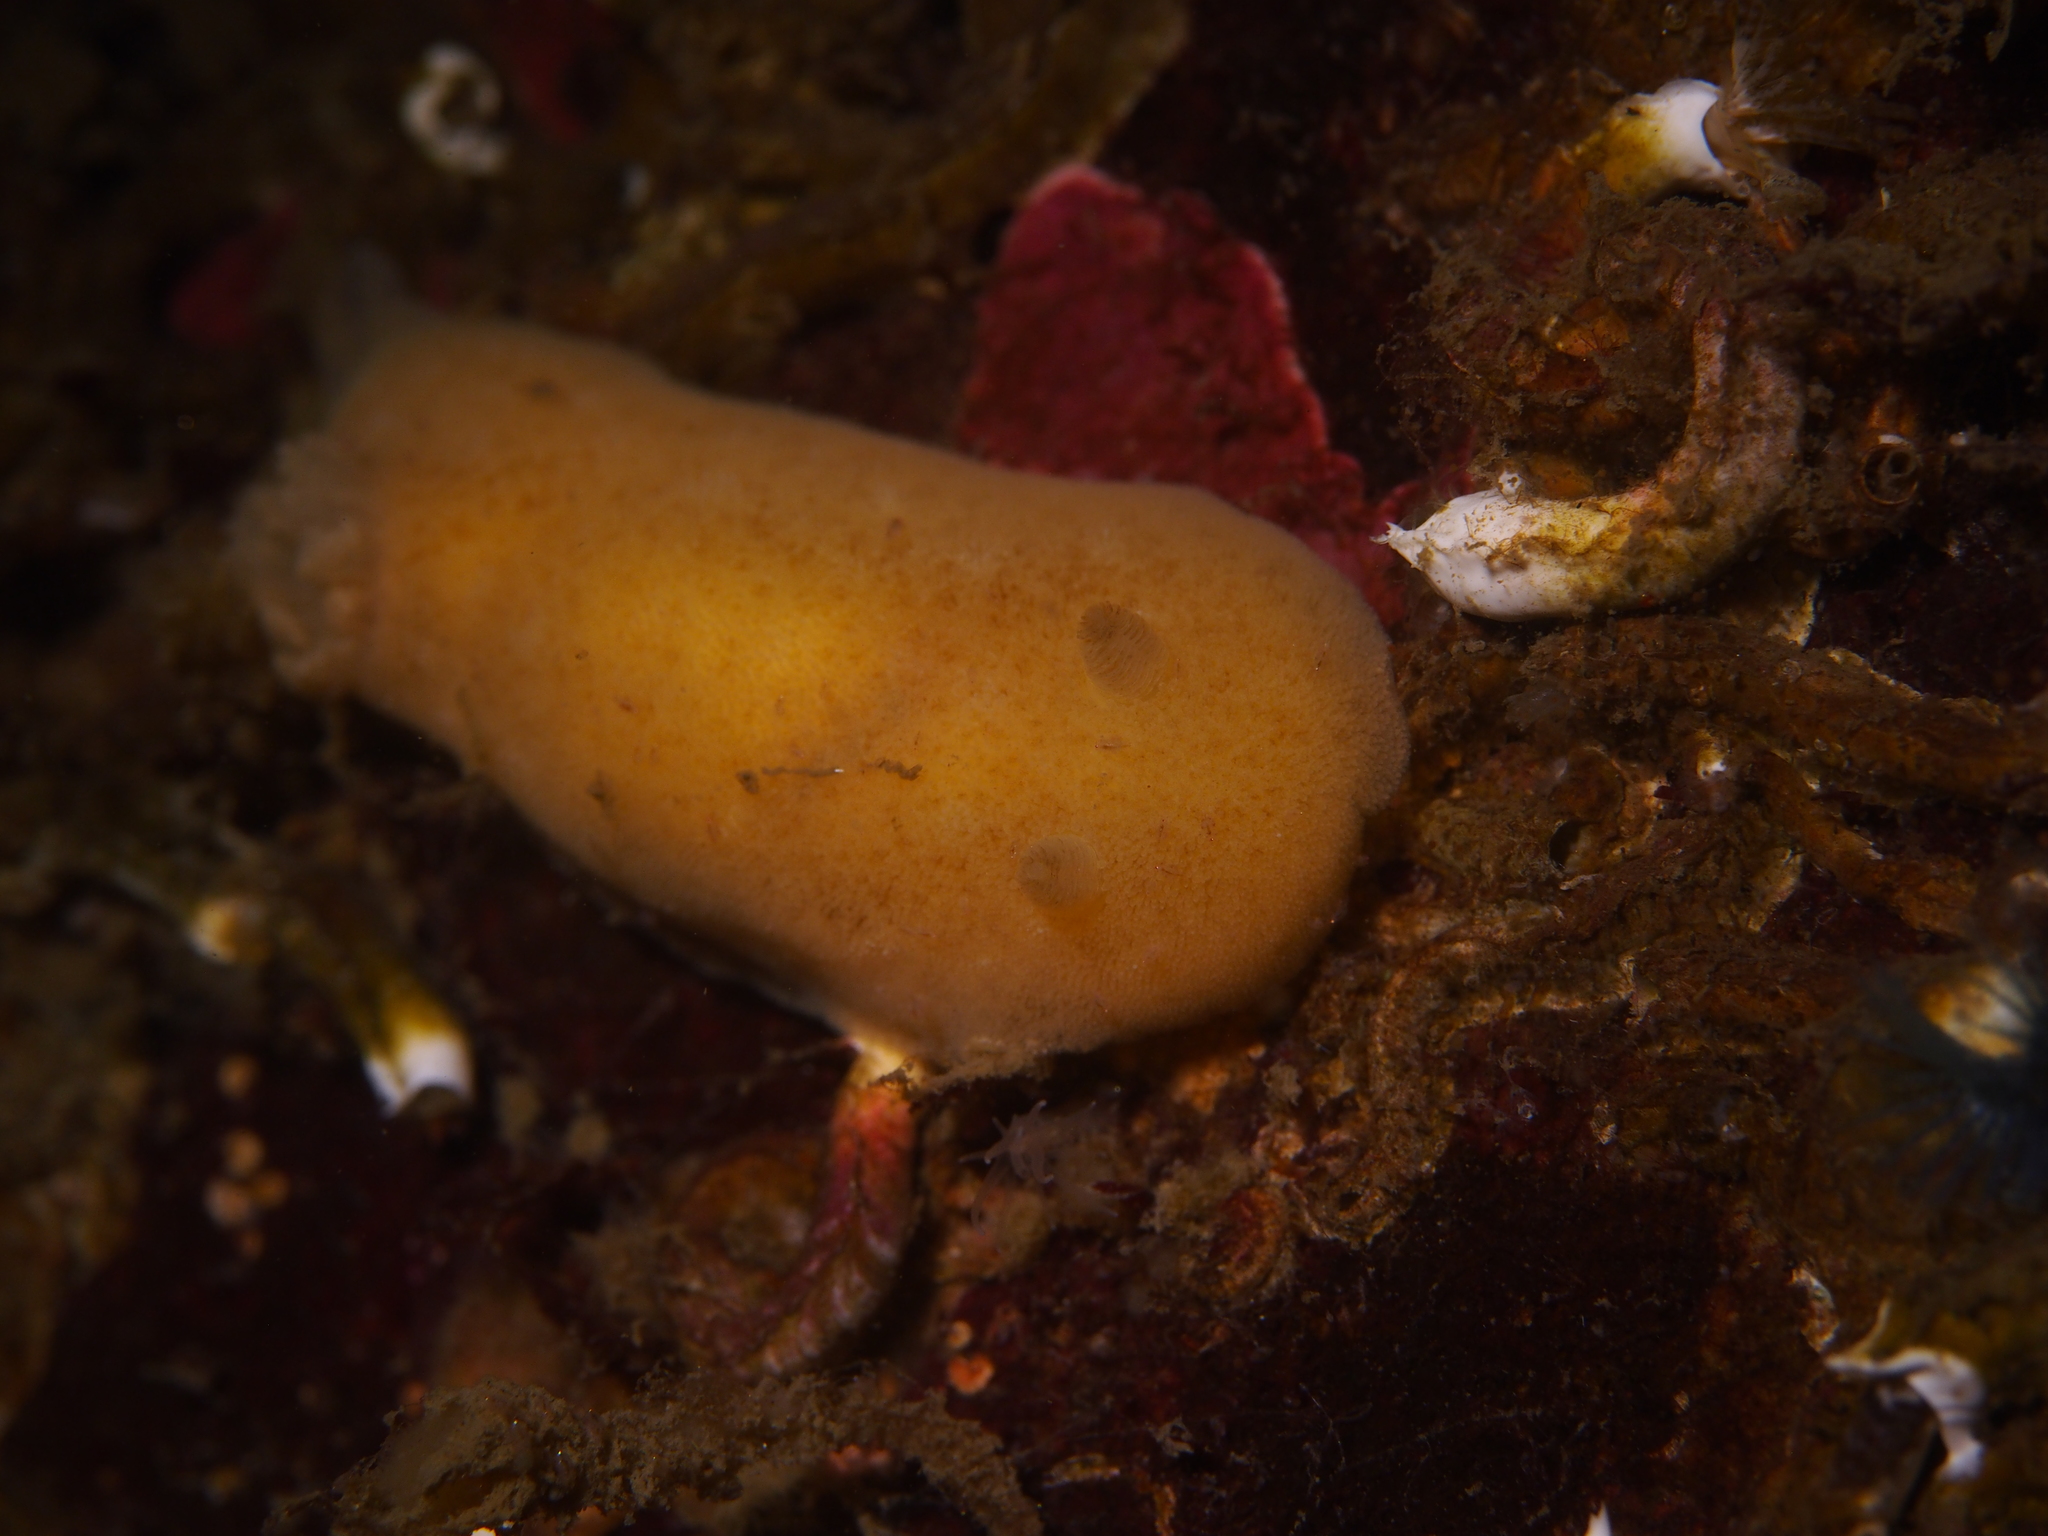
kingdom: Animalia
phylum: Mollusca
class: Gastropoda
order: Nudibranchia
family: Discodorididae
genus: Jorunna
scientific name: Jorunna tomentosa
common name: Grey sea slug
